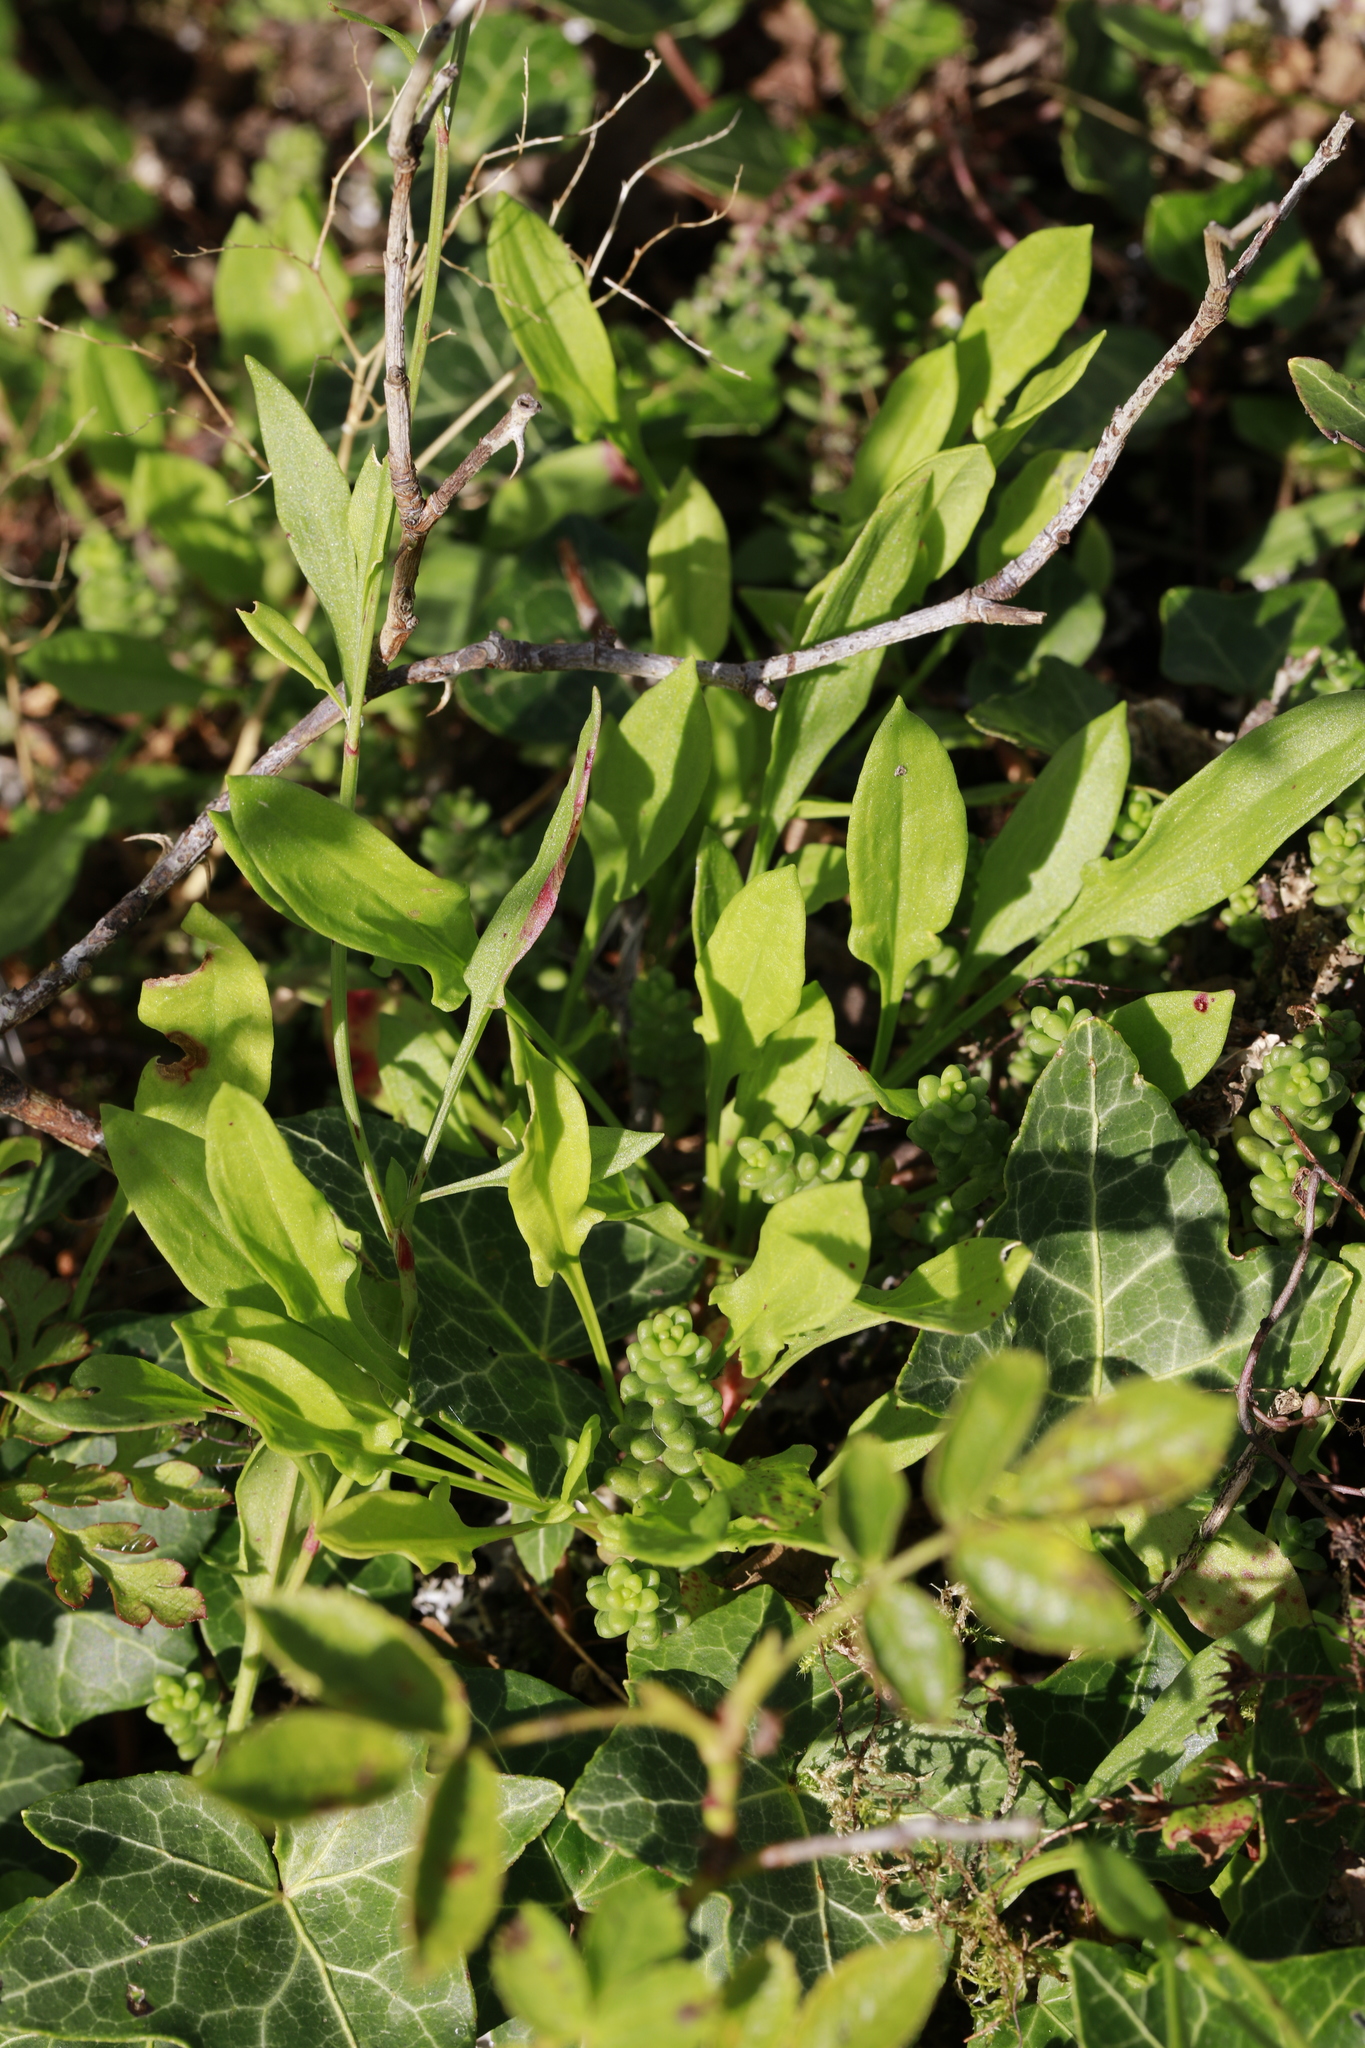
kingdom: Plantae
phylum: Tracheophyta
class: Magnoliopsida
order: Caryophyllales
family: Polygonaceae
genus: Rumex
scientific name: Rumex acetosella
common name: Common sheep sorrel
